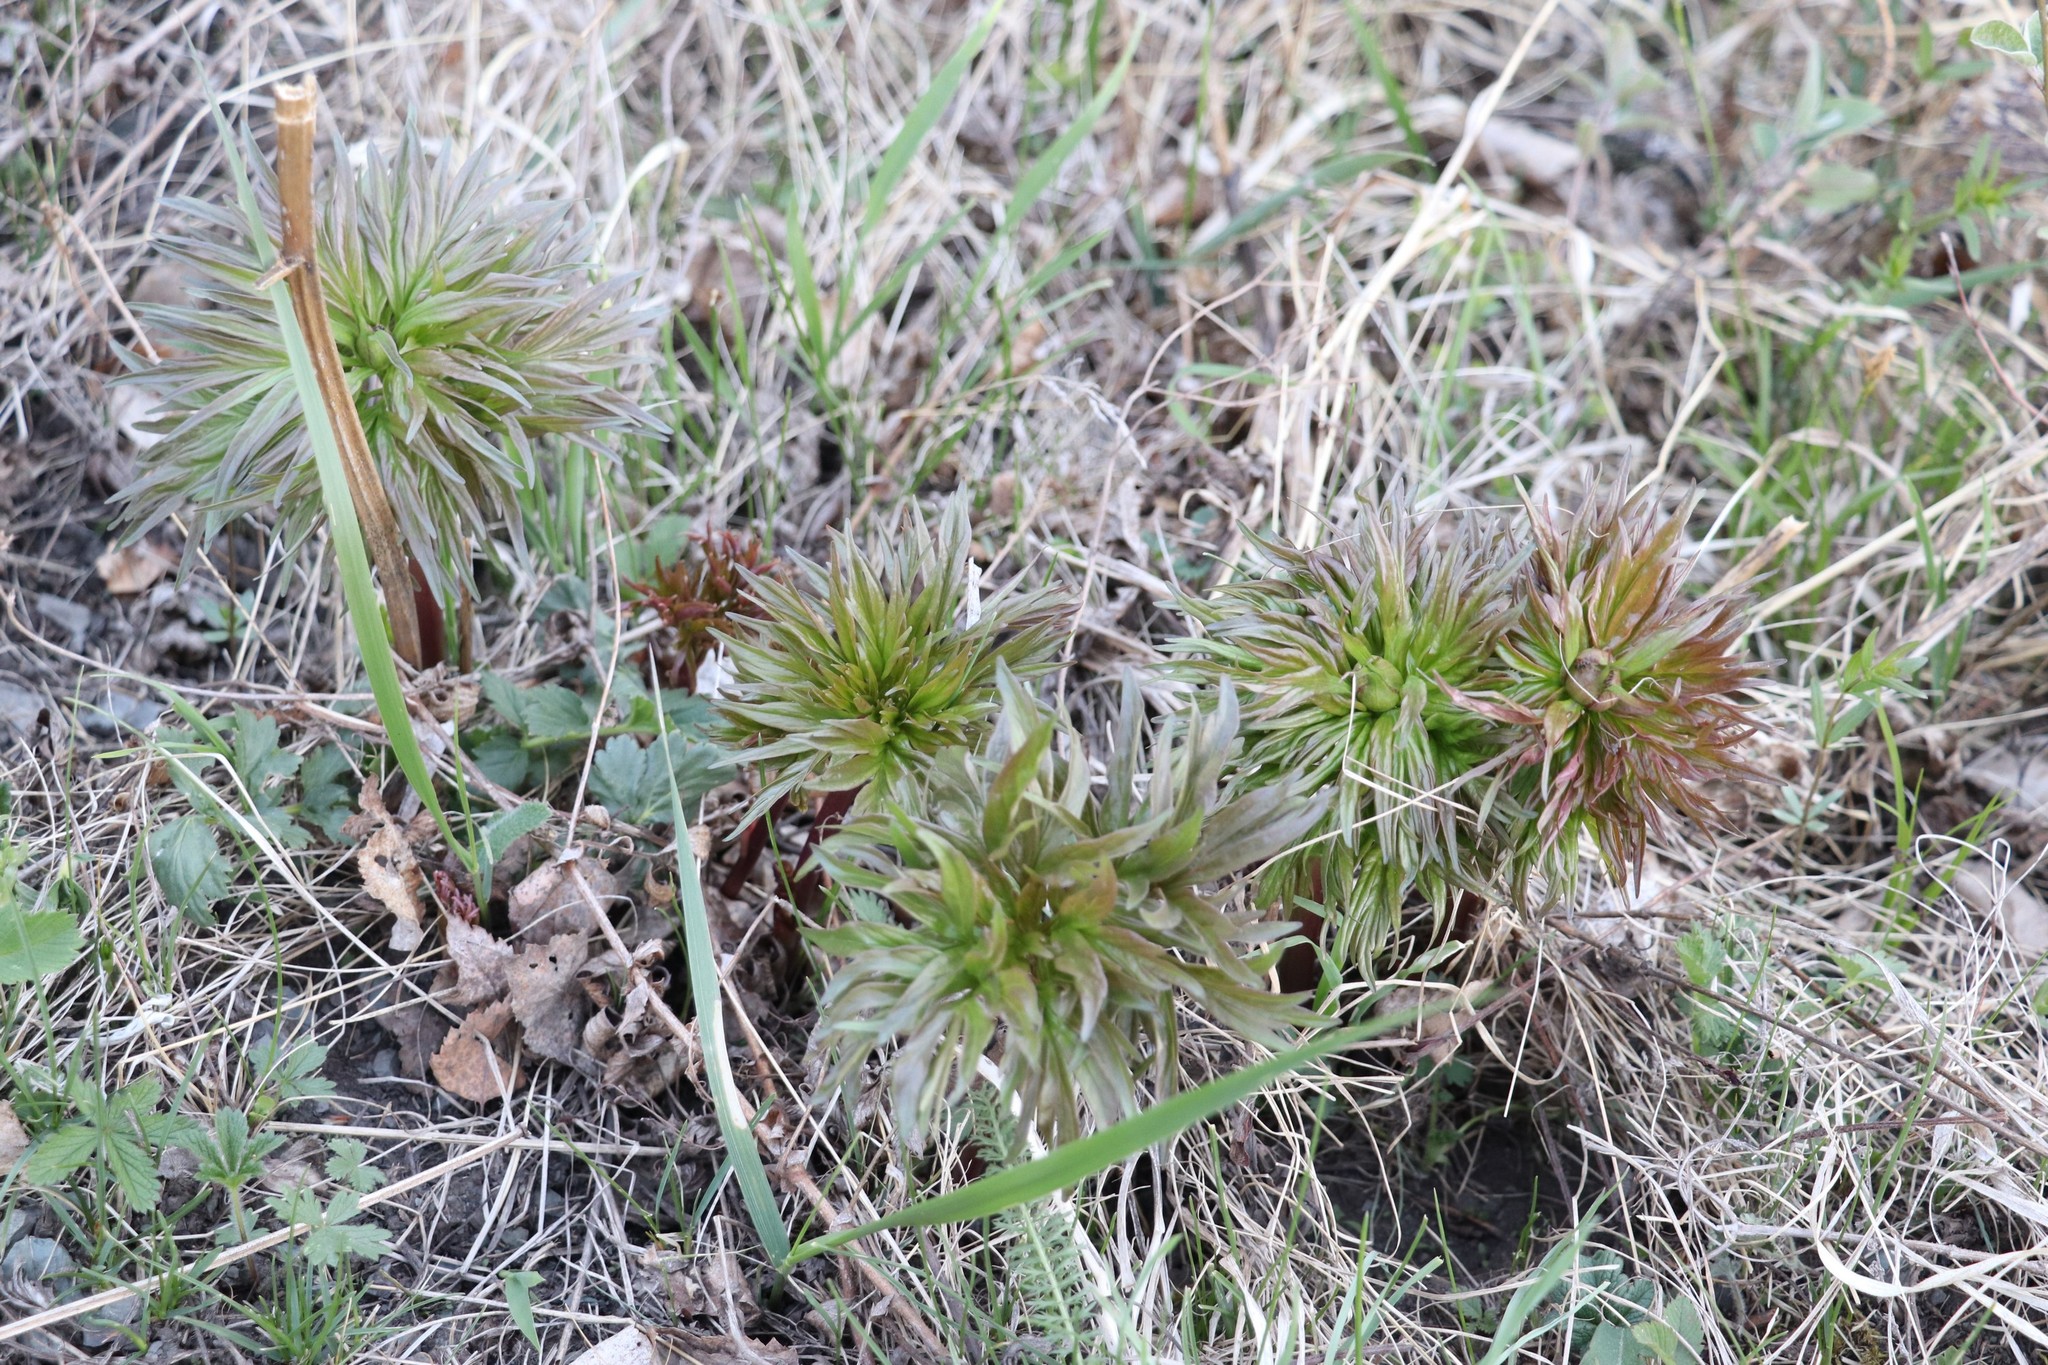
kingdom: Plantae
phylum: Tracheophyta
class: Magnoliopsida
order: Saxifragales
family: Paeoniaceae
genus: Paeonia
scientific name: Paeonia anomala
